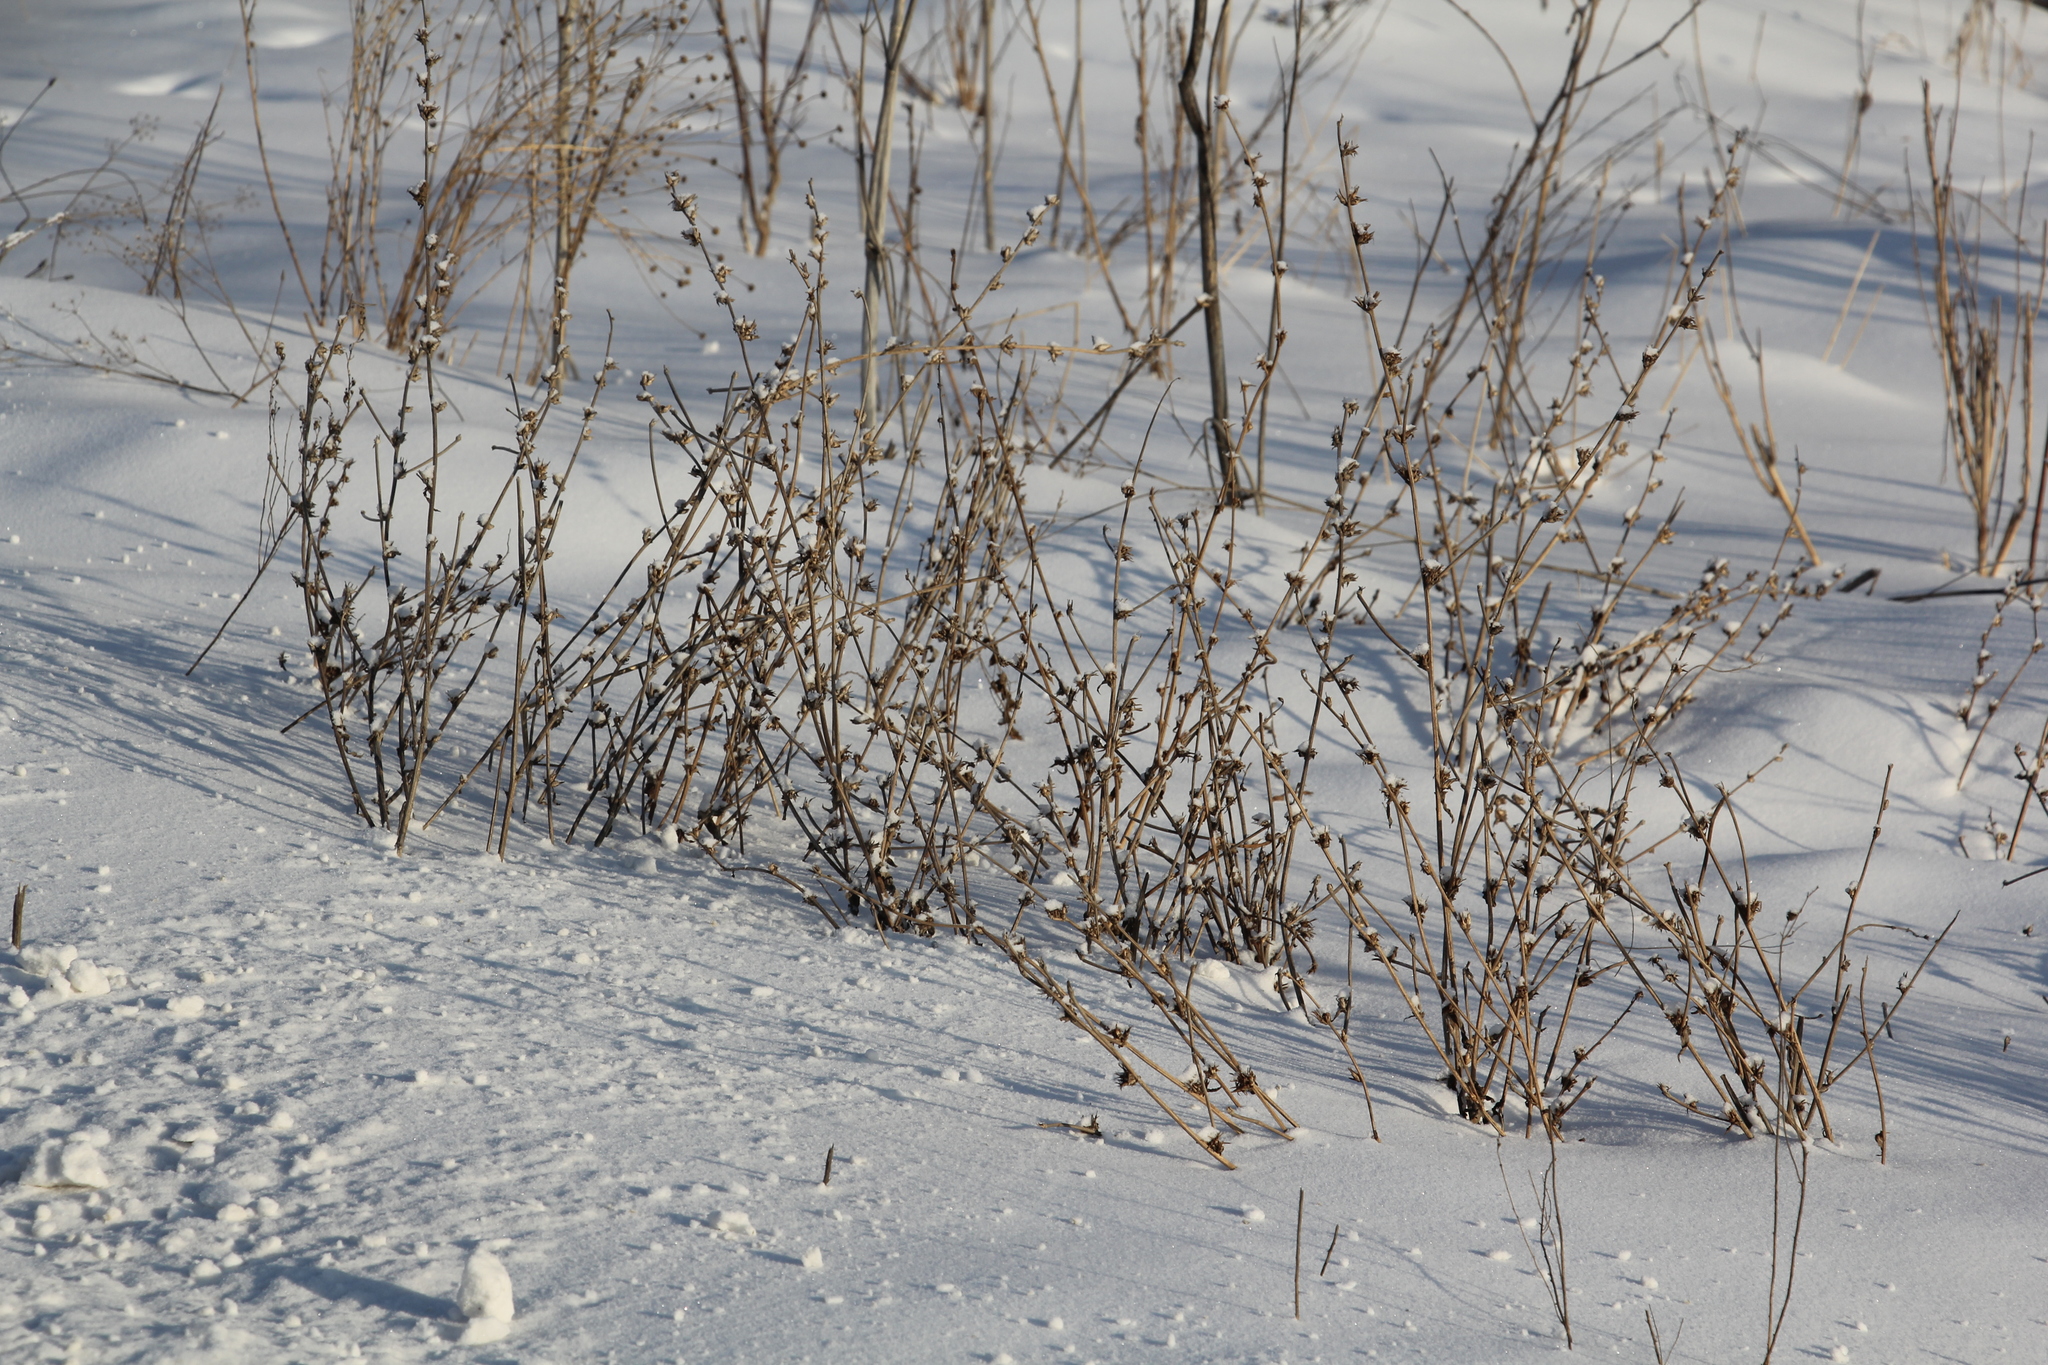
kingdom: Plantae
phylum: Tracheophyta
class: Magnoliopsida
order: Asterales
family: Asteraceae
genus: Cichorium
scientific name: Cichorium intybus
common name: Chicory
